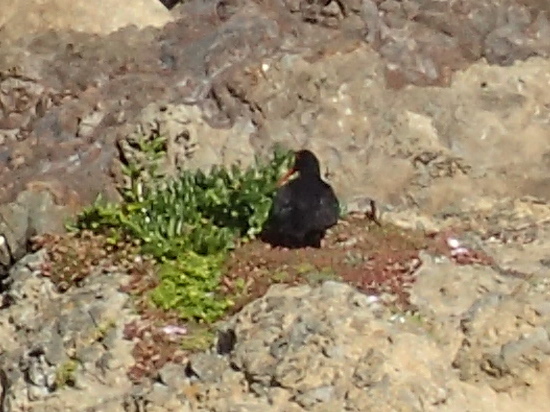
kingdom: Animalia
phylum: Chordata
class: Aves
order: Charadriiformes
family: Haematopodidae
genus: Haematopus
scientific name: Haematopus unicolor
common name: Variable oystercatcher
